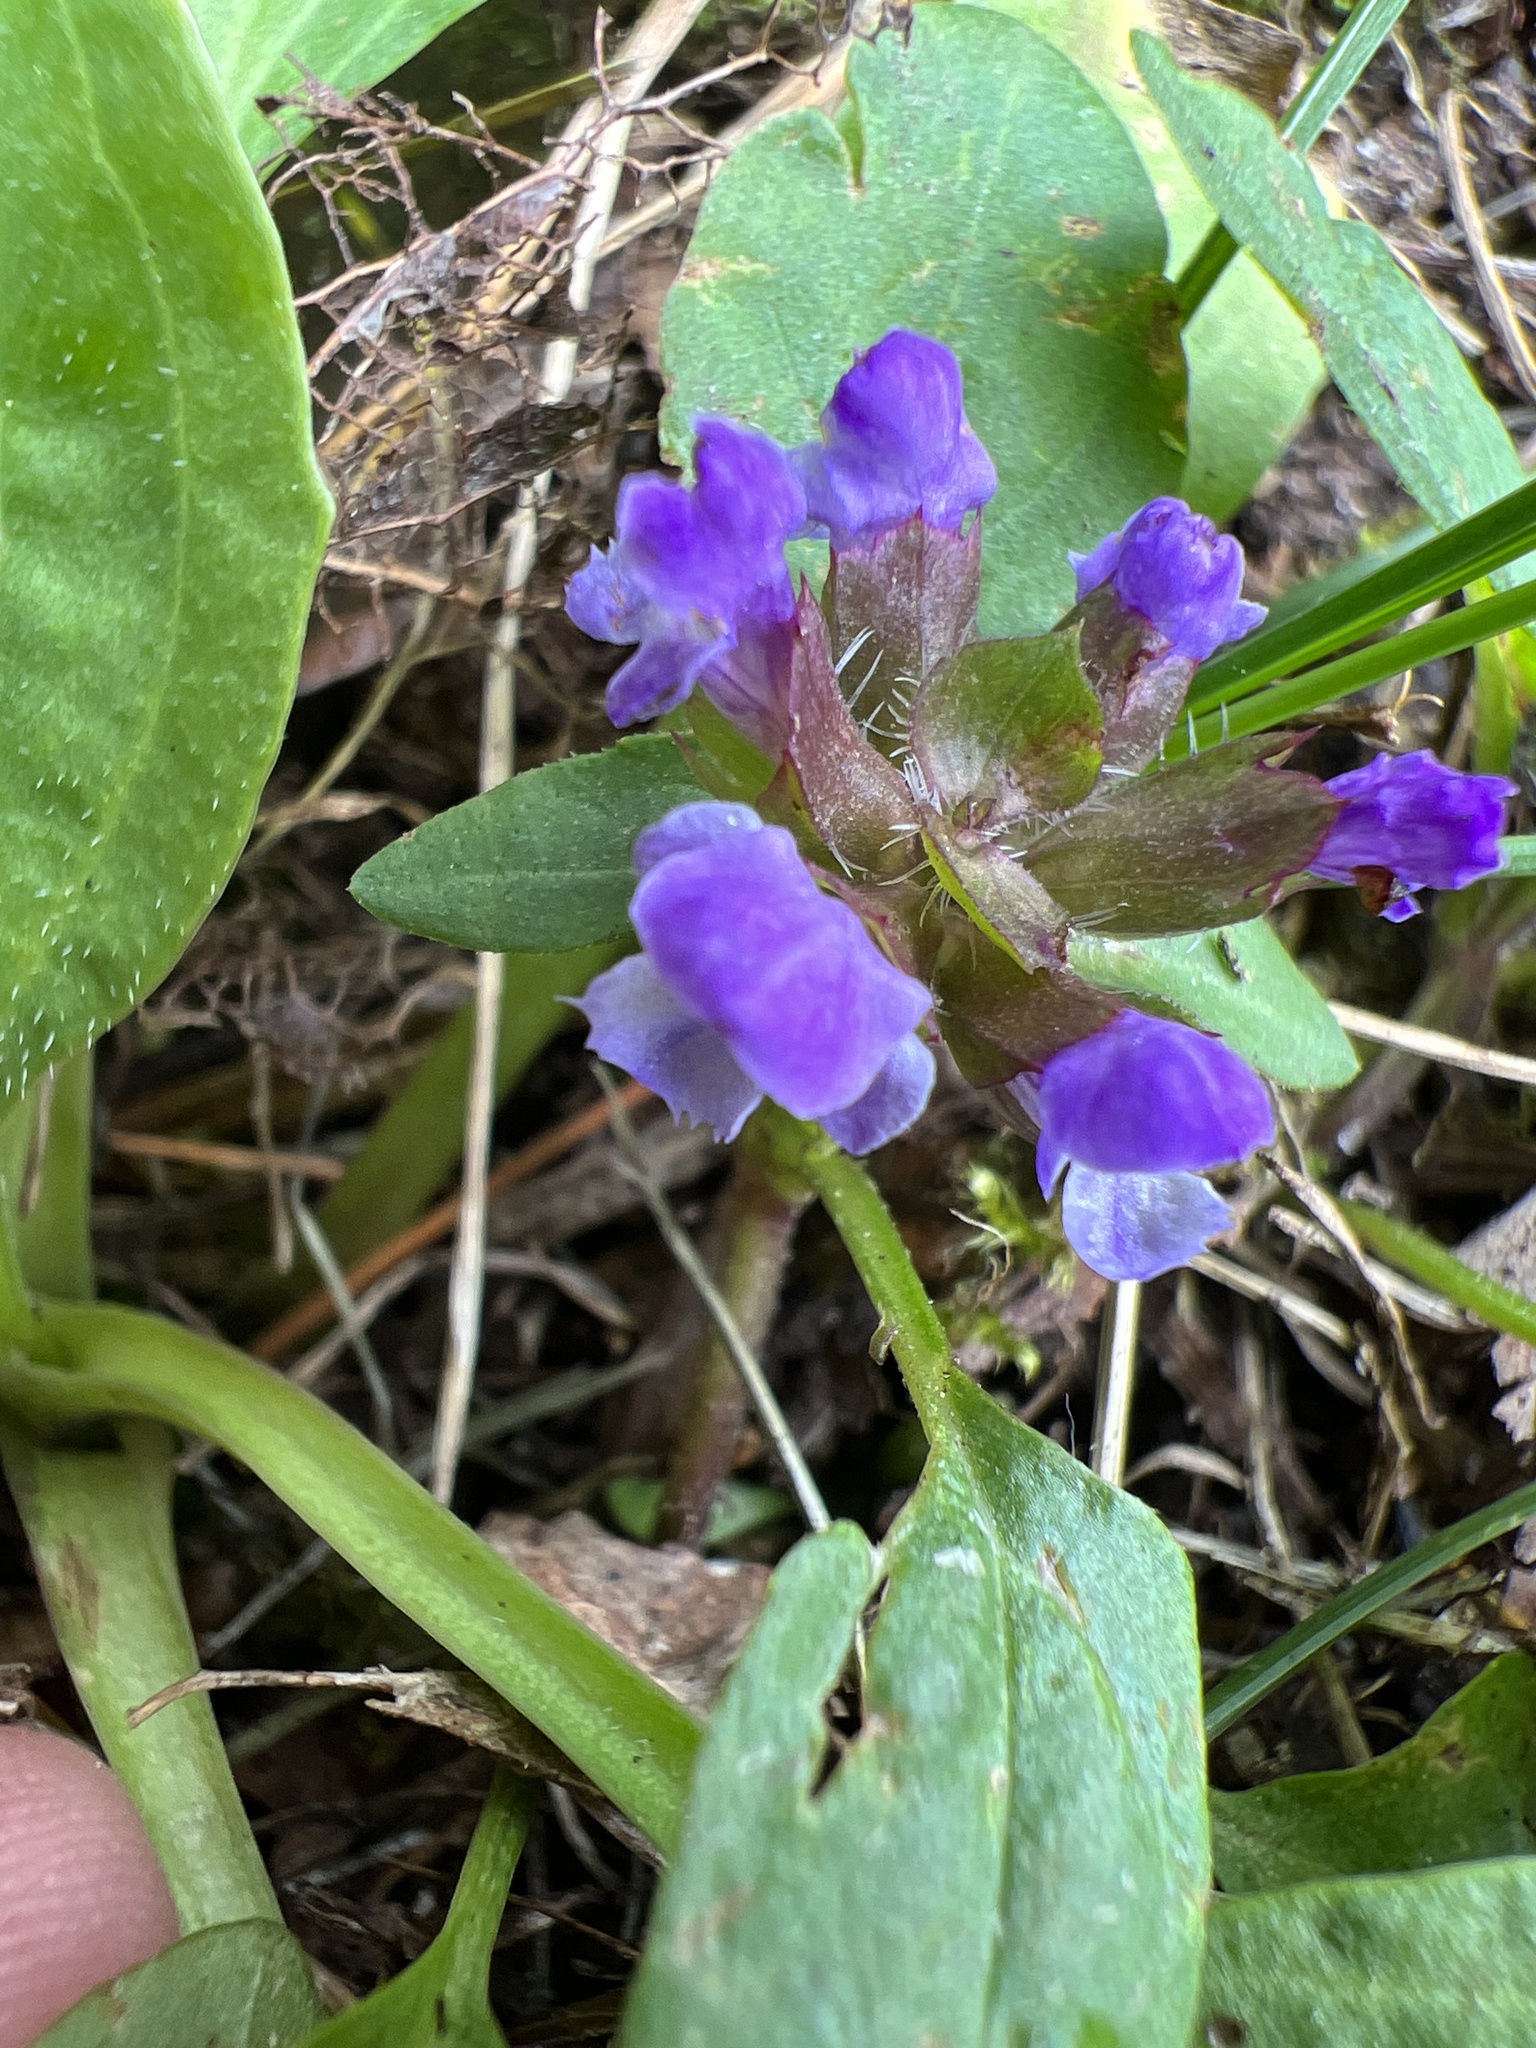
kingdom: Plantae
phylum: Tracheophyta
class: Magnoliopsida
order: Lamiales
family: Lamiaceae
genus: Prunella
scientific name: Prunella vulgaris
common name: Heal-all
